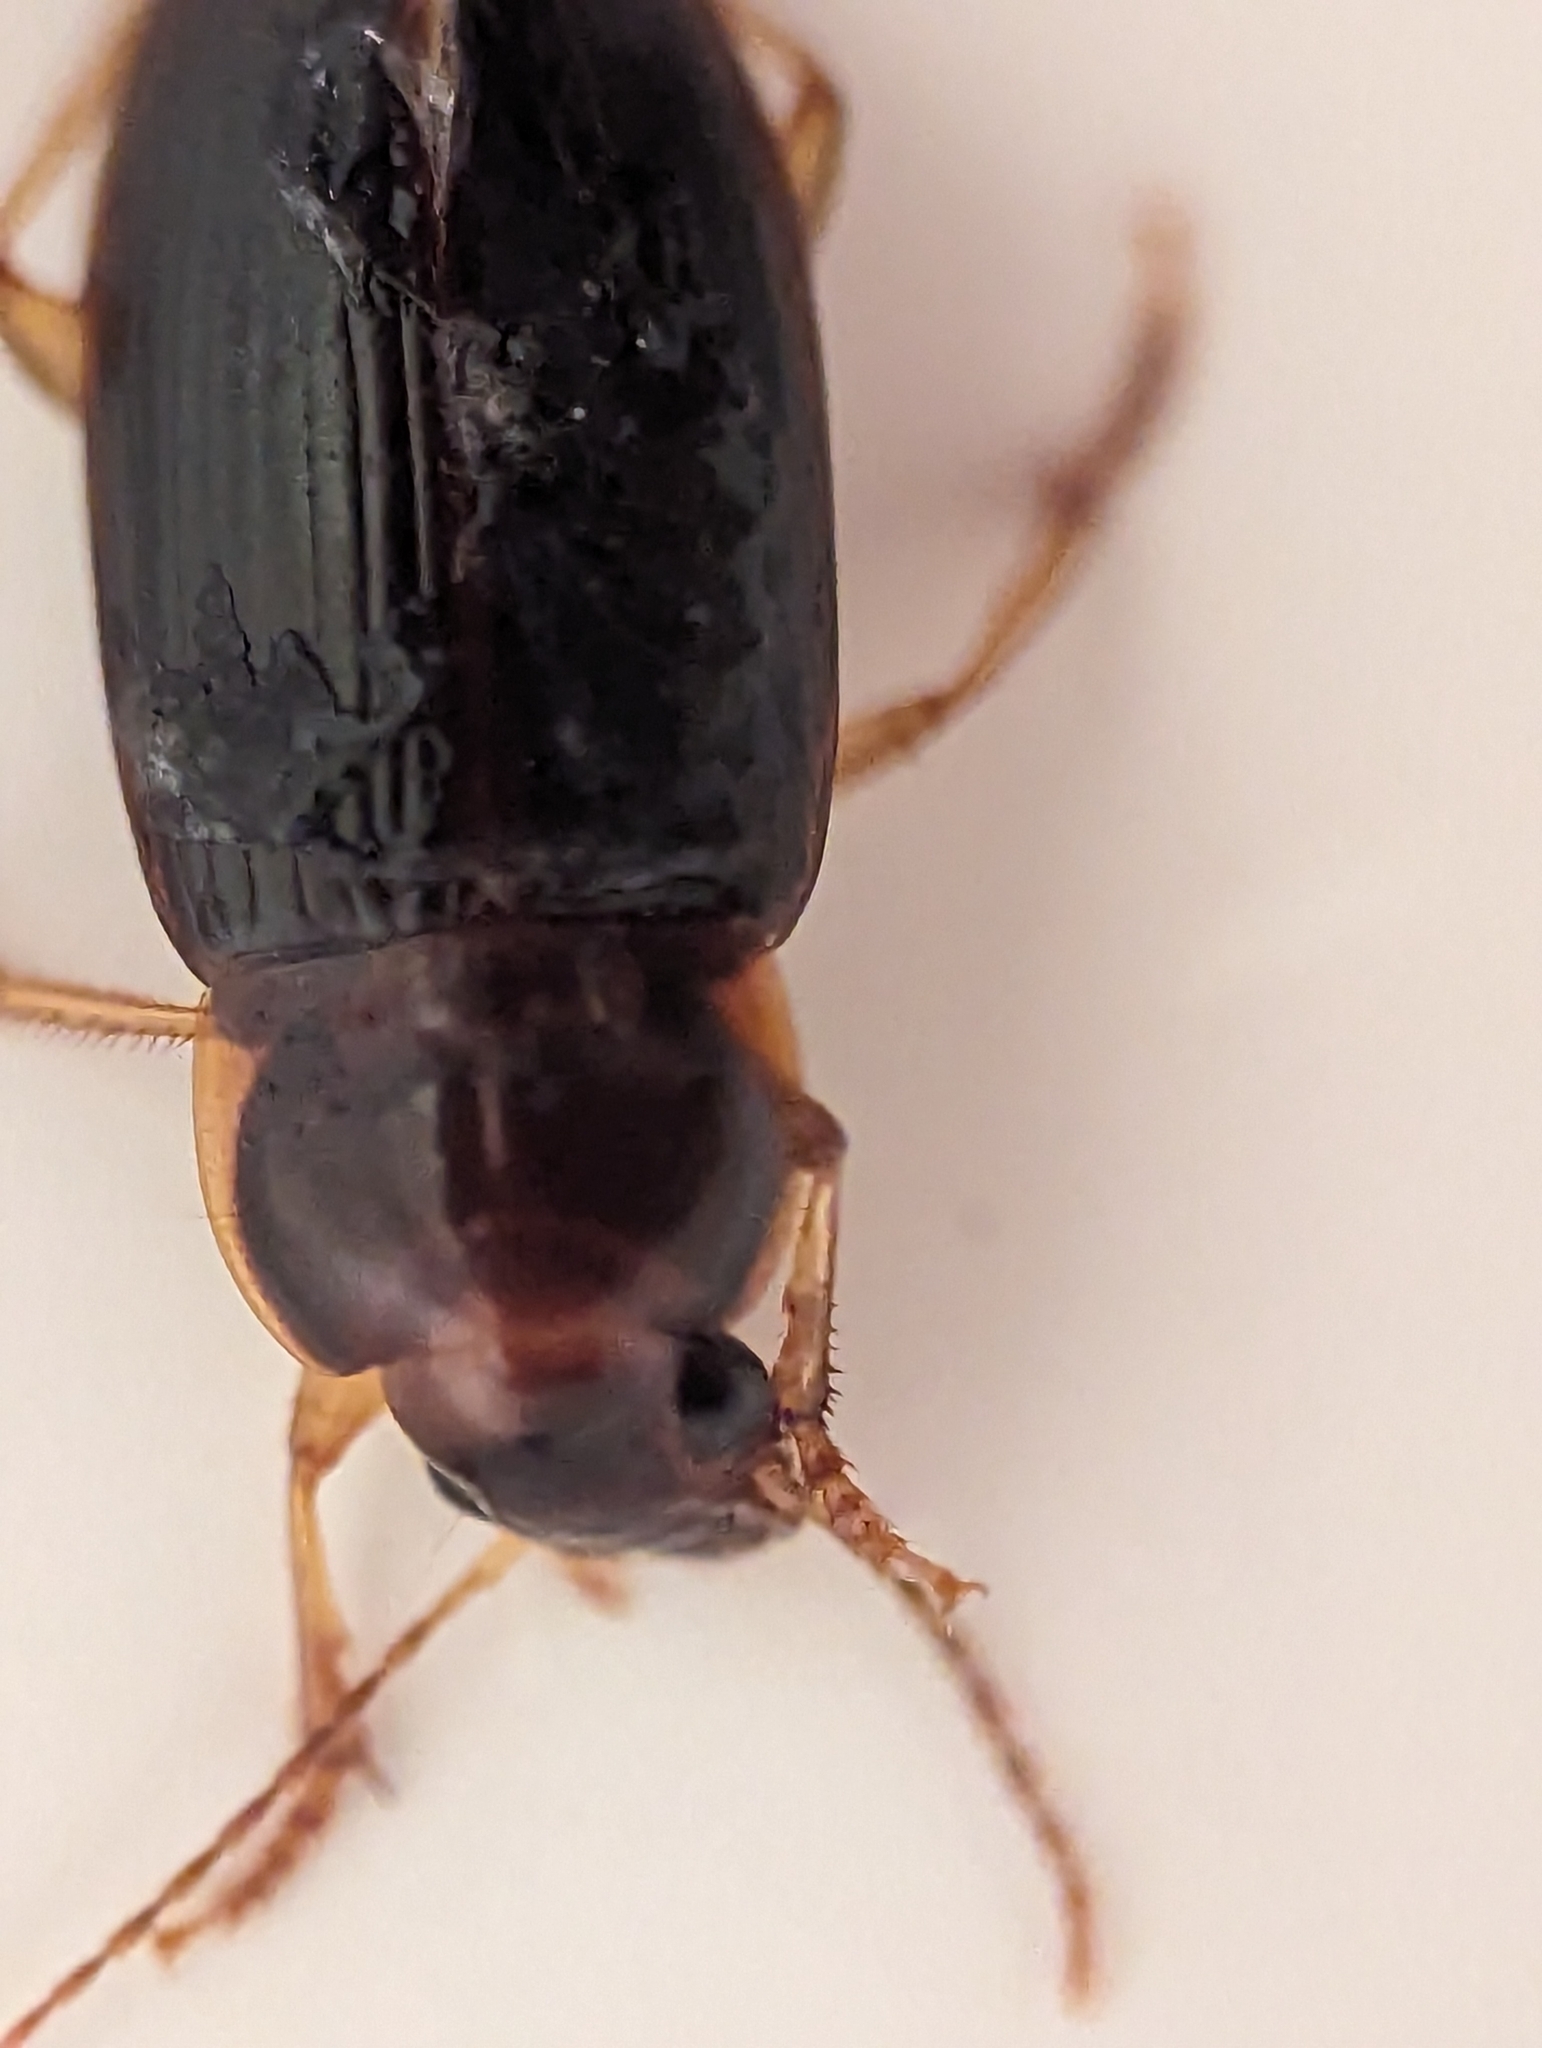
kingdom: Animalia
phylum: Arthropoda
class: Insecta
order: Coleoptera
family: Carabidae
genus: Notiobia
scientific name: Notiobia terminata
